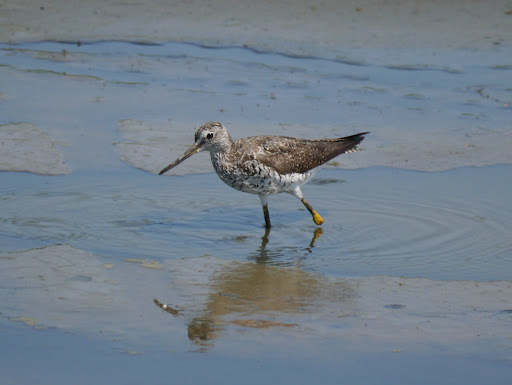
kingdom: Animalia
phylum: Chordata
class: Aves
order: Charadriiformes
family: Scolopacidae
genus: Tringa
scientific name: Tringa melanoleuca
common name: Greater yellowlegs
